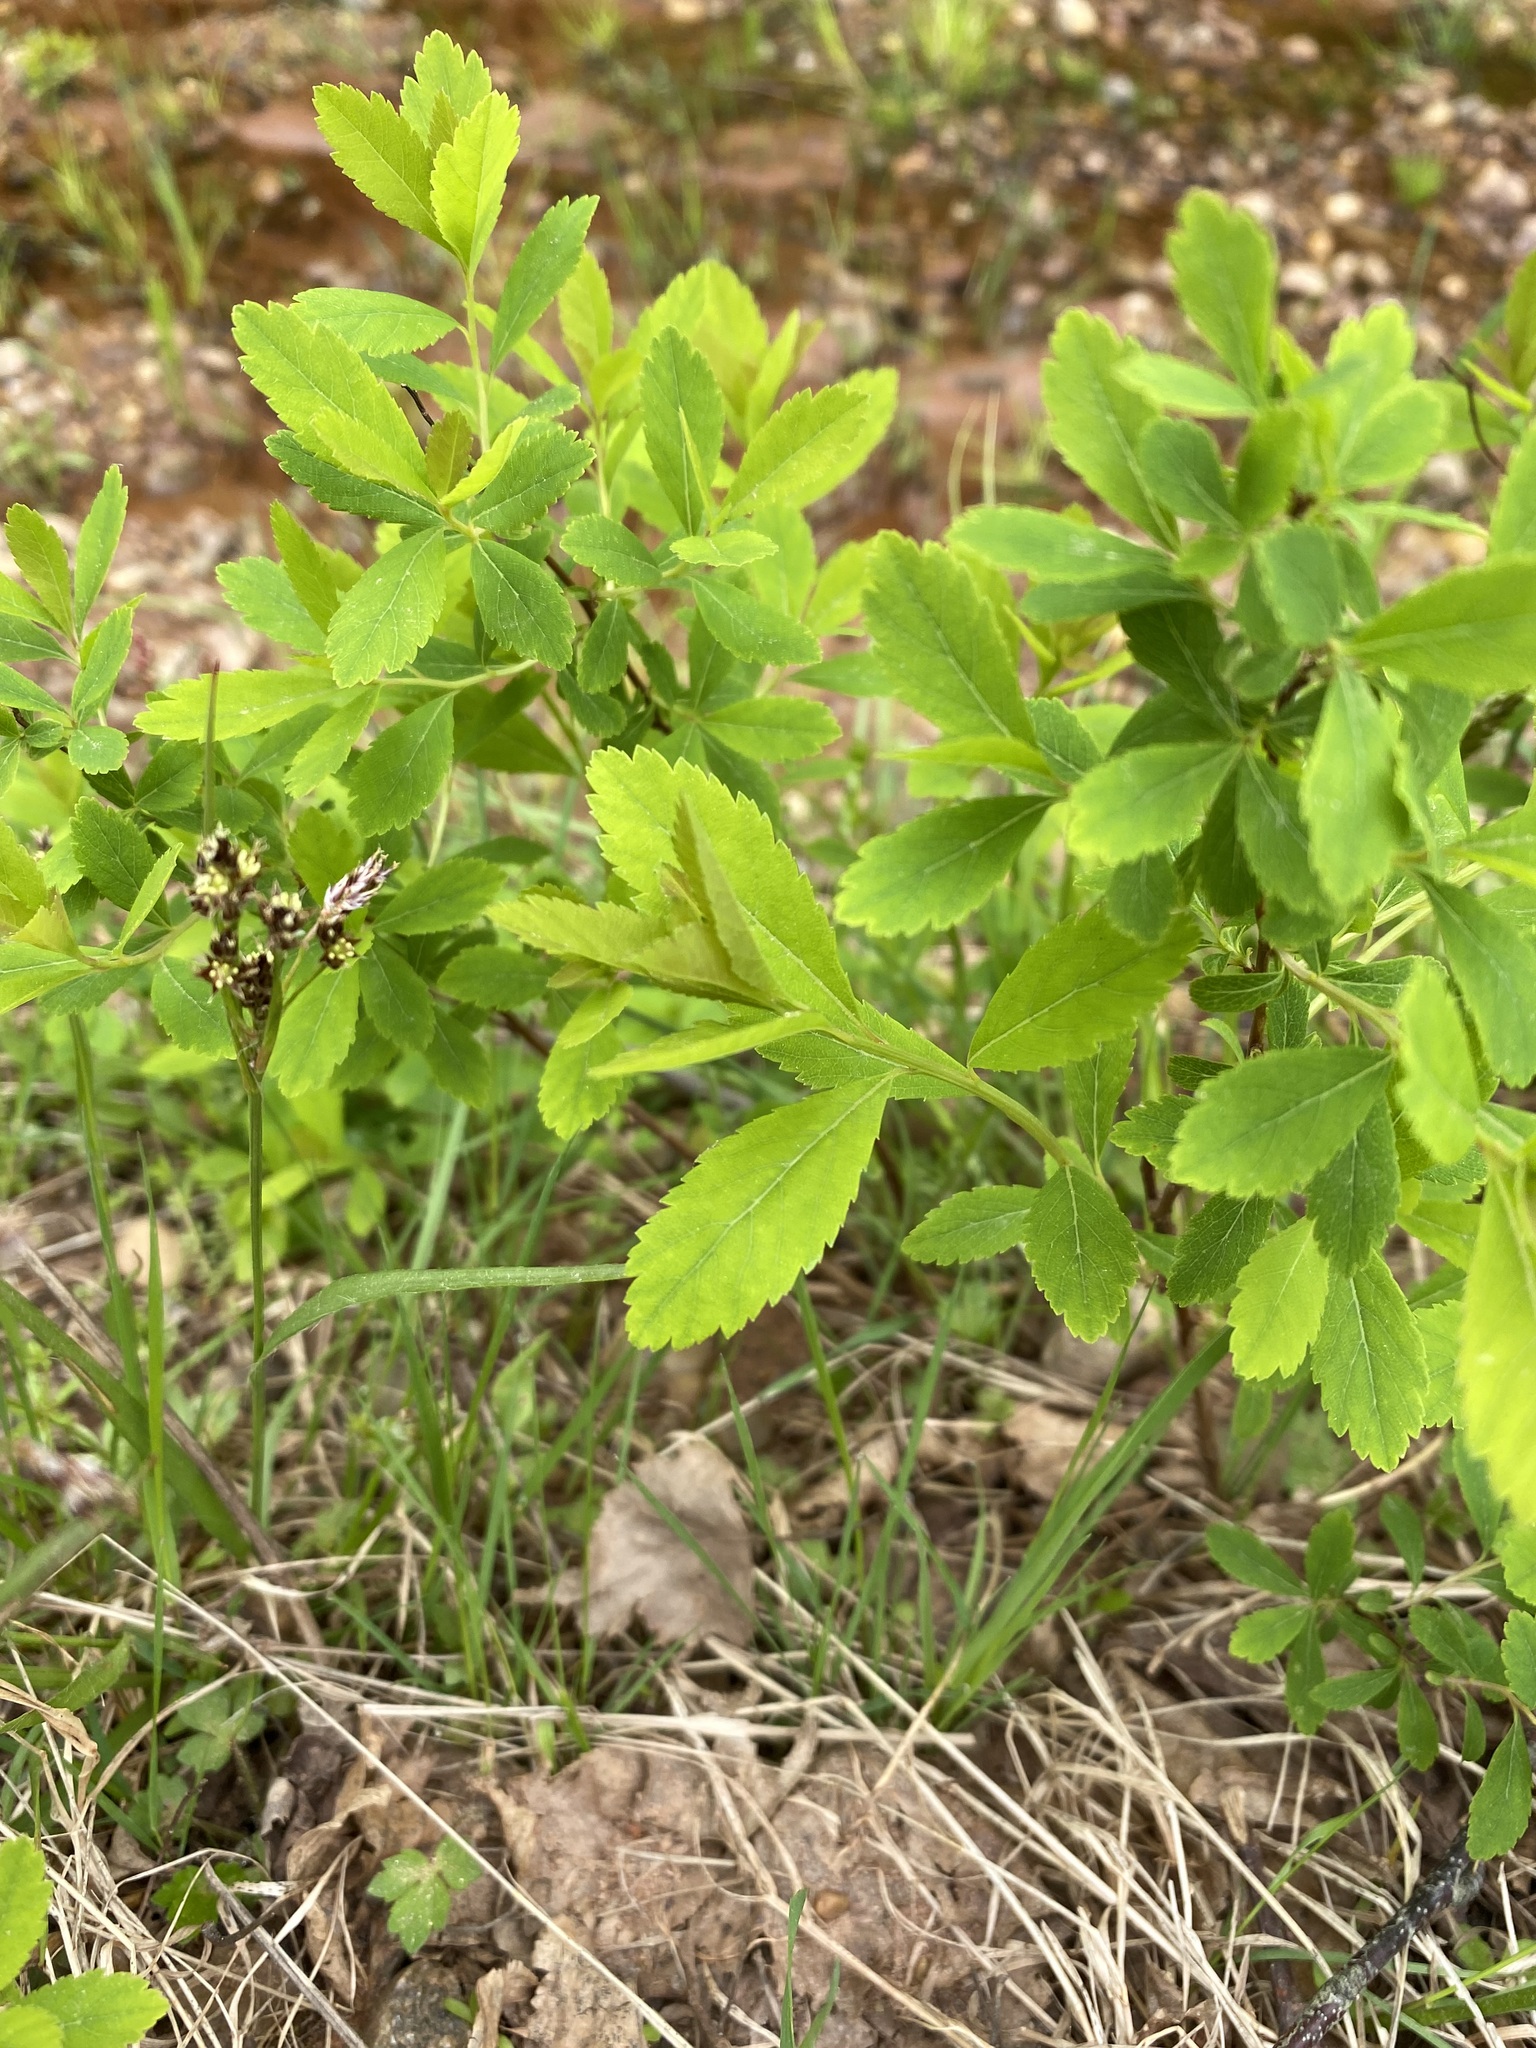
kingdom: Plantae
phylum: Tracheophyta
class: Magnoliopsida
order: Rosales
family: Rosaceae
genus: Spiraea
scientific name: Spiraea alba
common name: Pale bridewort
